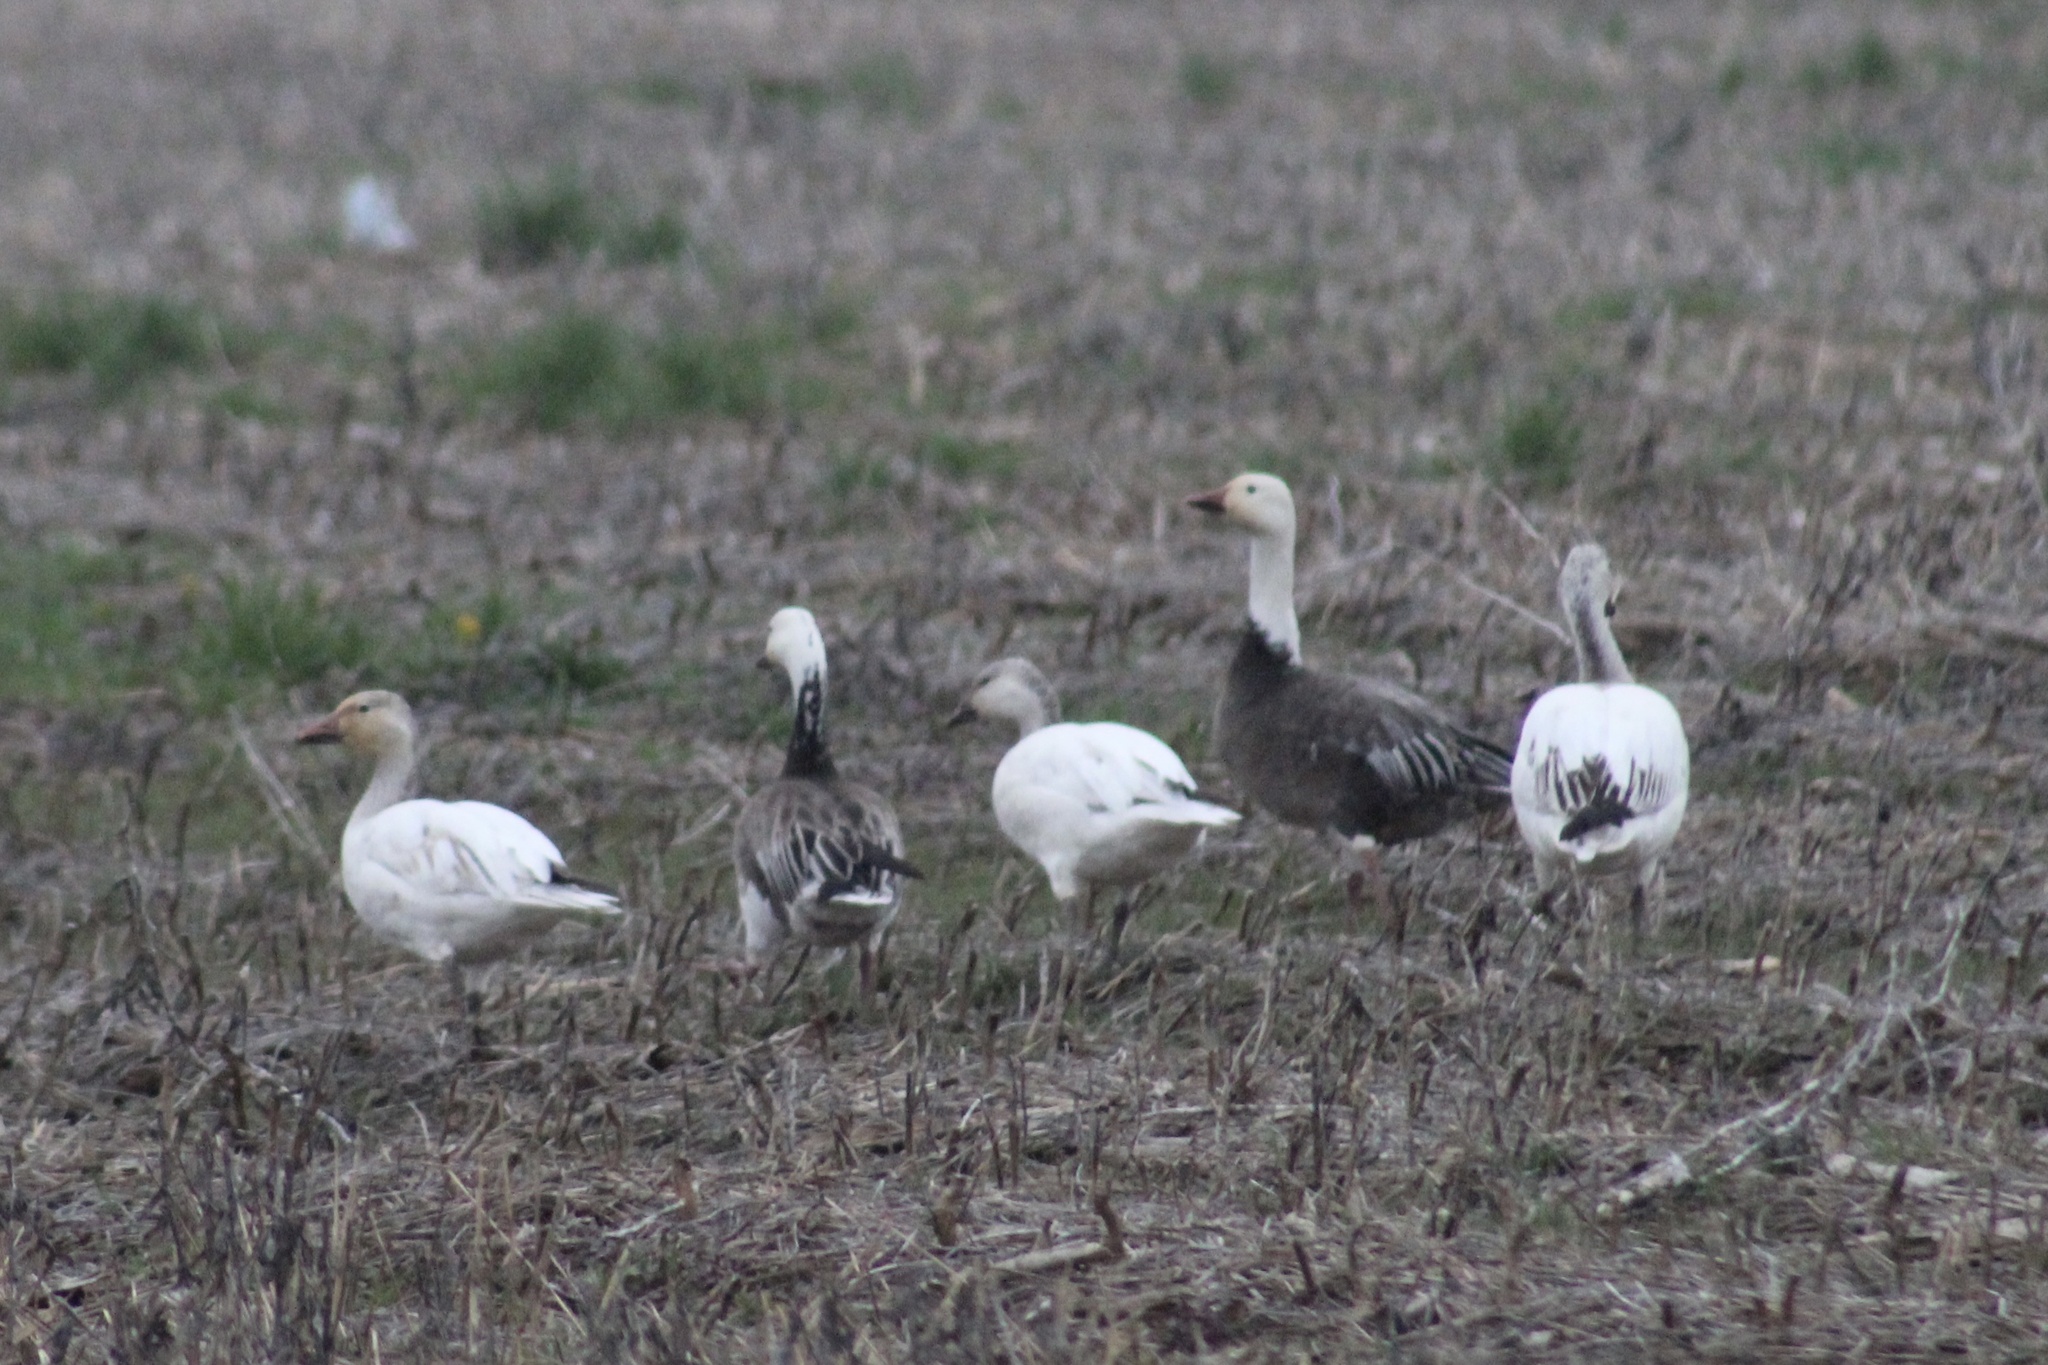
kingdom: Animalia
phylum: Chordata
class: Aves
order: Anseriformes
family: Anatidae
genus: Anser
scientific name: Anser caerulescens
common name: Snow goose
